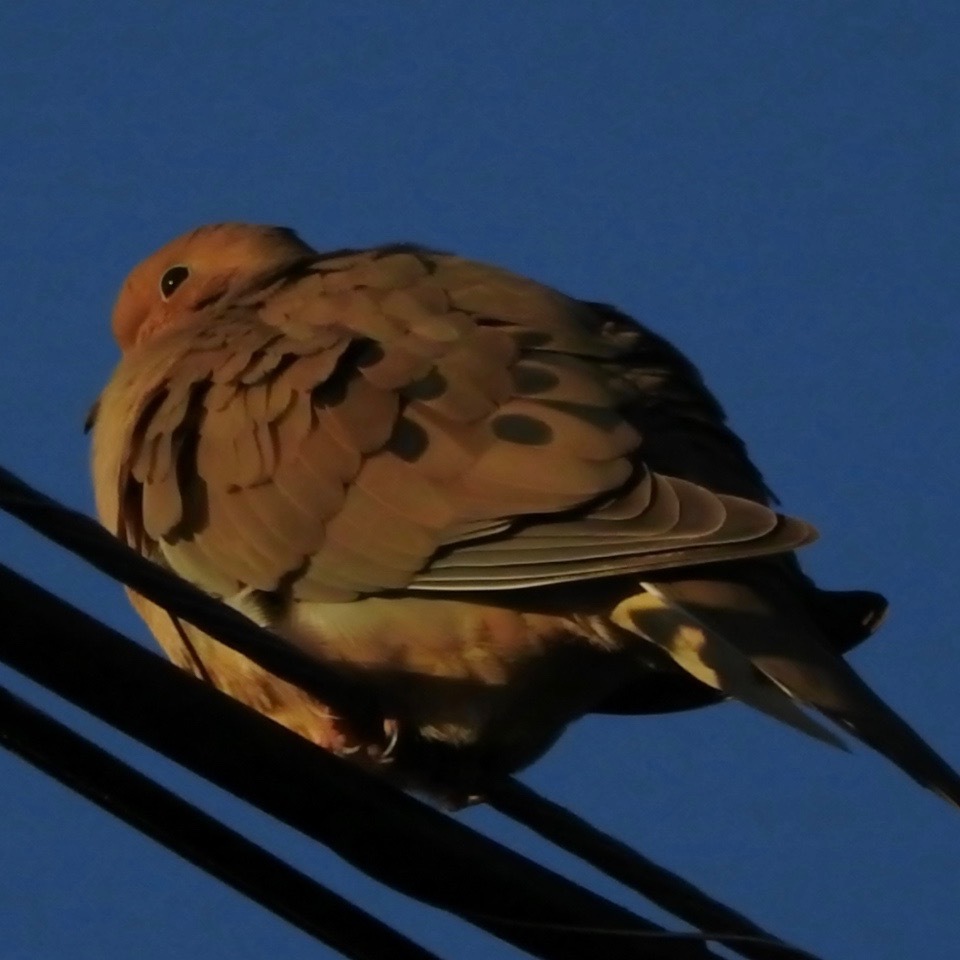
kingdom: Animalia
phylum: Chordata
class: Aves
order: Columbiformes
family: Columbidae
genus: Zenaida
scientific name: Zenaida macroura
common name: Mourning dove
